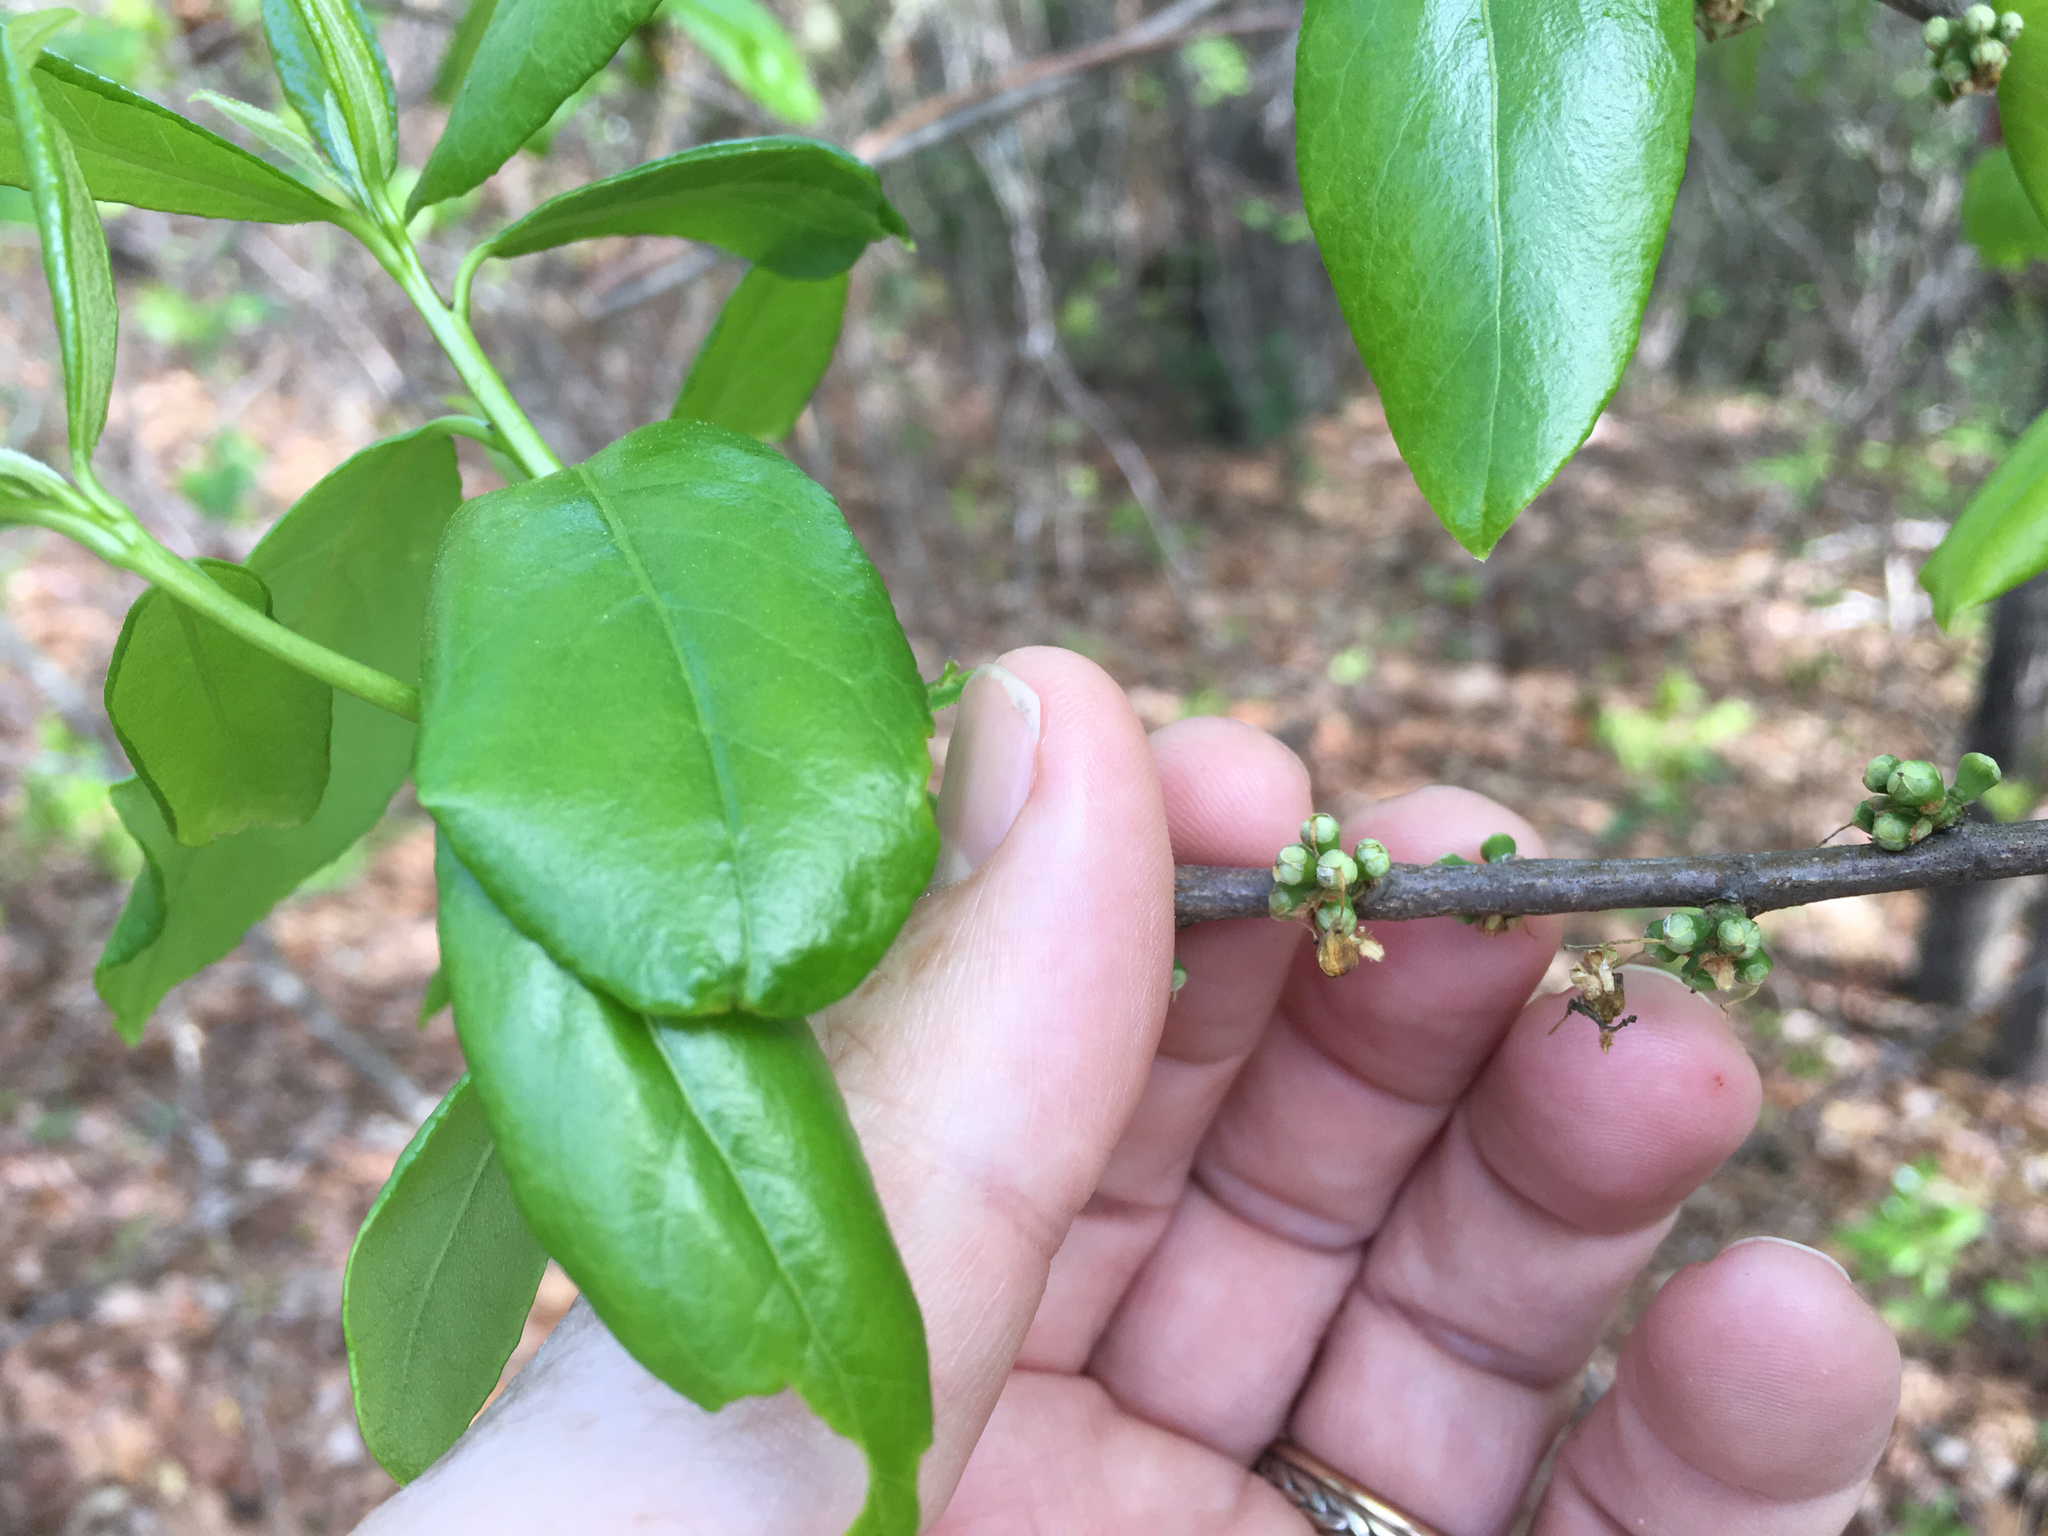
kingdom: Plantae
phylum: Tracheophyta
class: Magnoliopsida
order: Ericales
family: Symplocaceae
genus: Symplocos
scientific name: Symplocos tinctoria
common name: Horse-sugar
